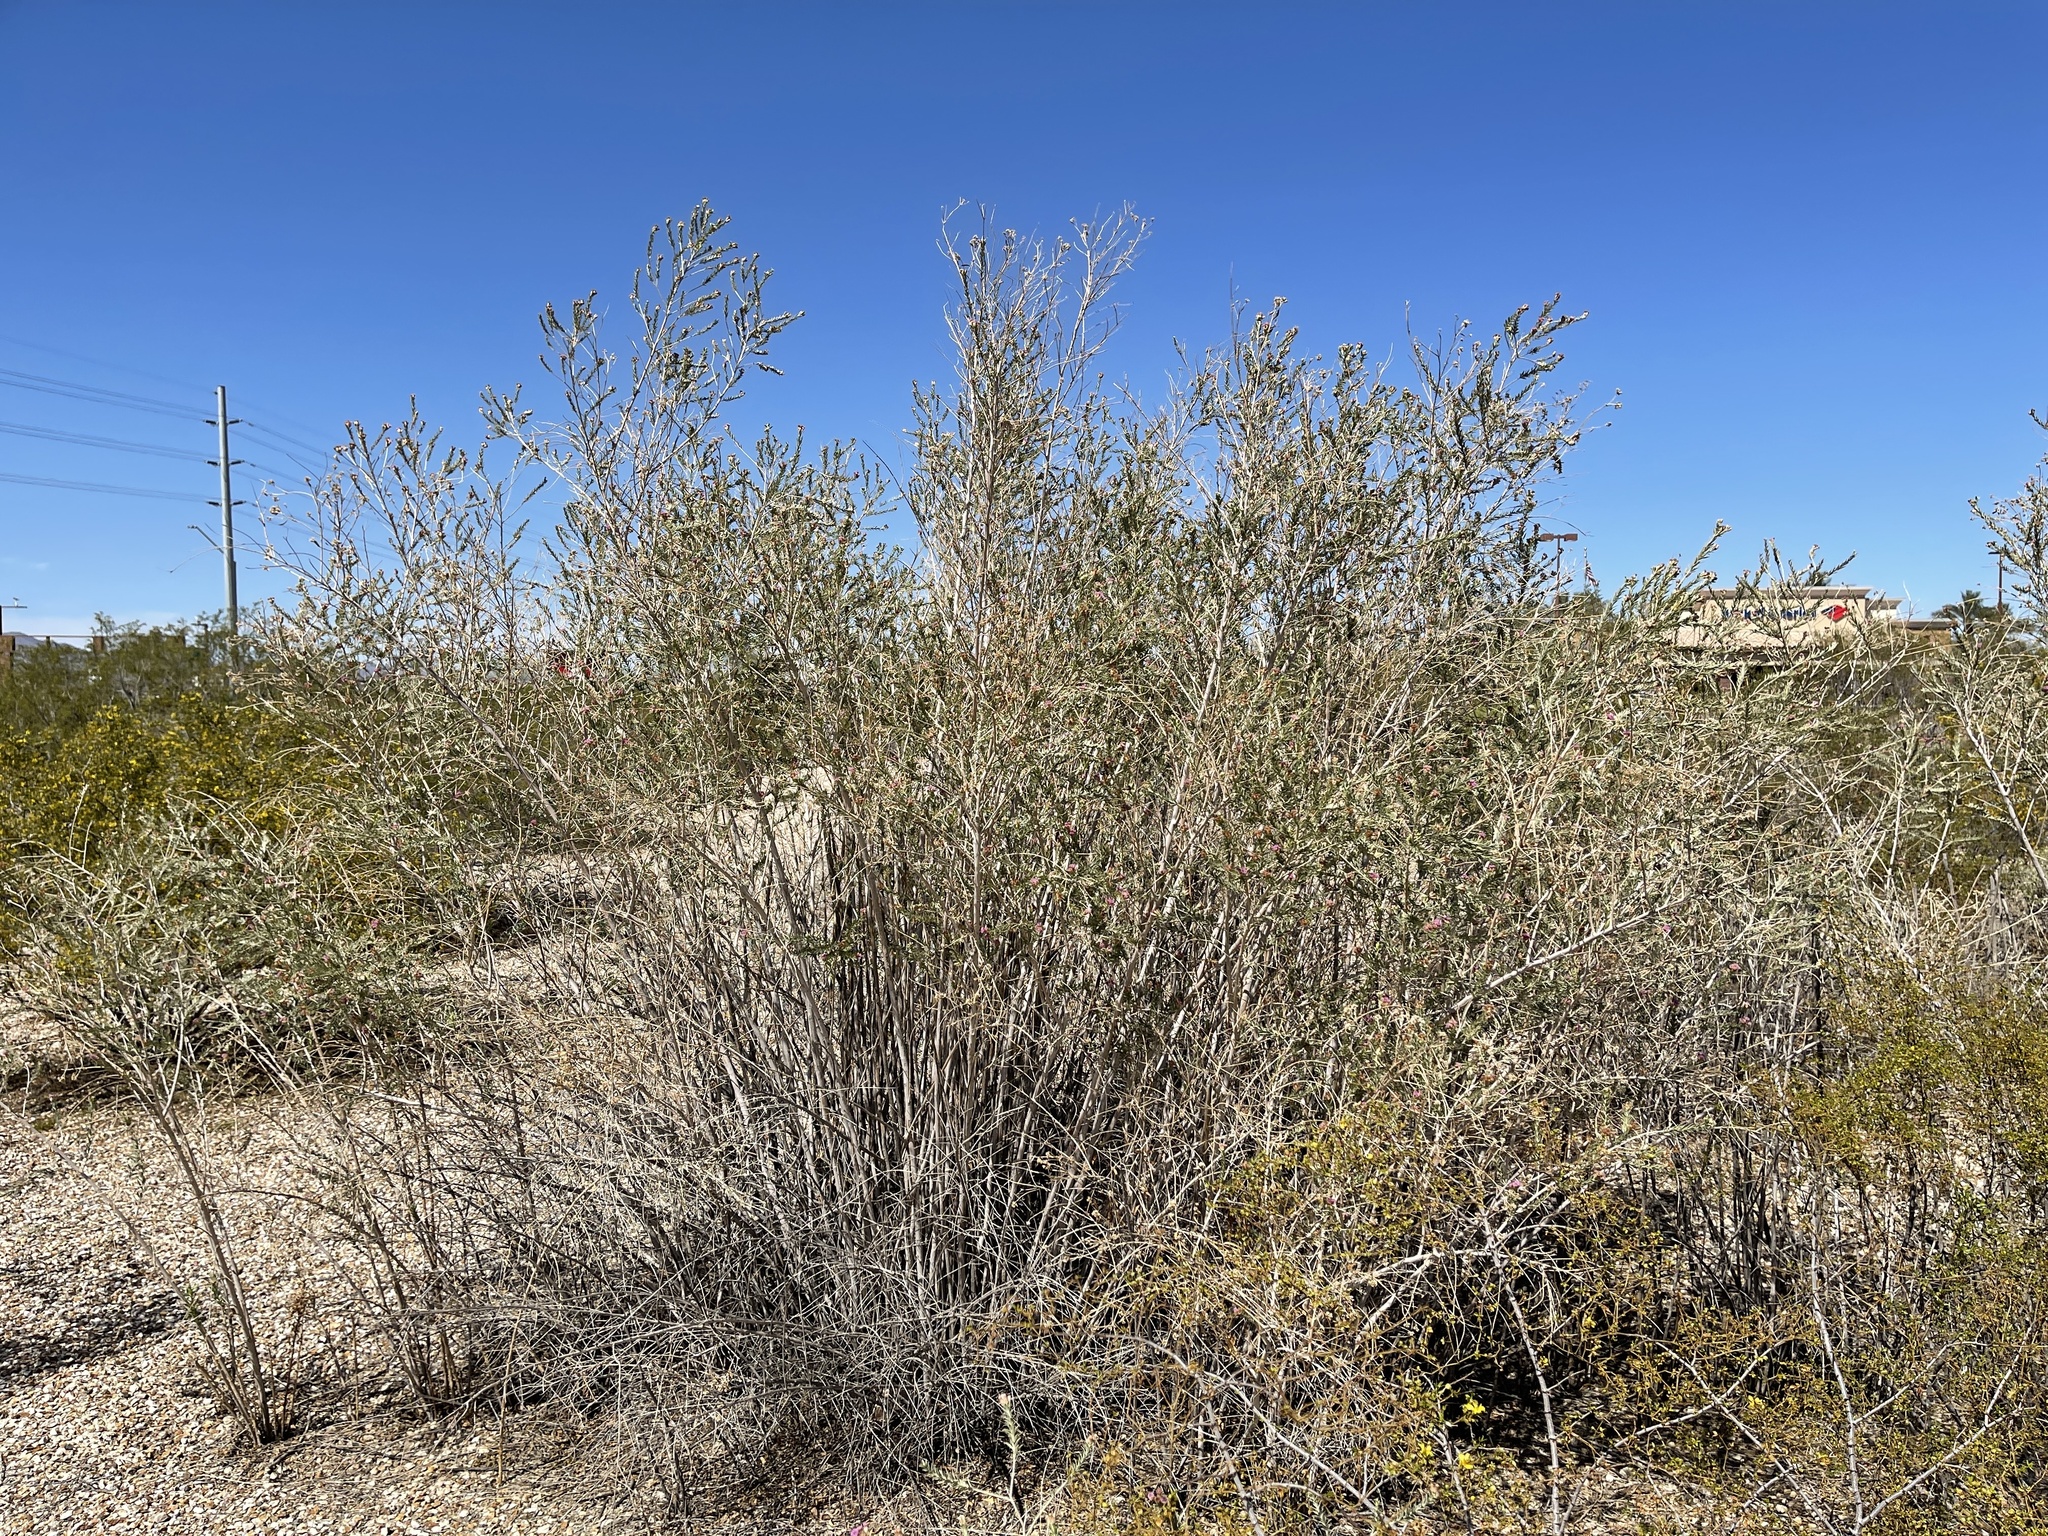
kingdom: Plantae
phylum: Tracheophyta
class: Magnoliopsida
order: Asterales
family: Asteraceae
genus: Pluchea
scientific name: Pluchea sericea
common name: Arrow-weed
